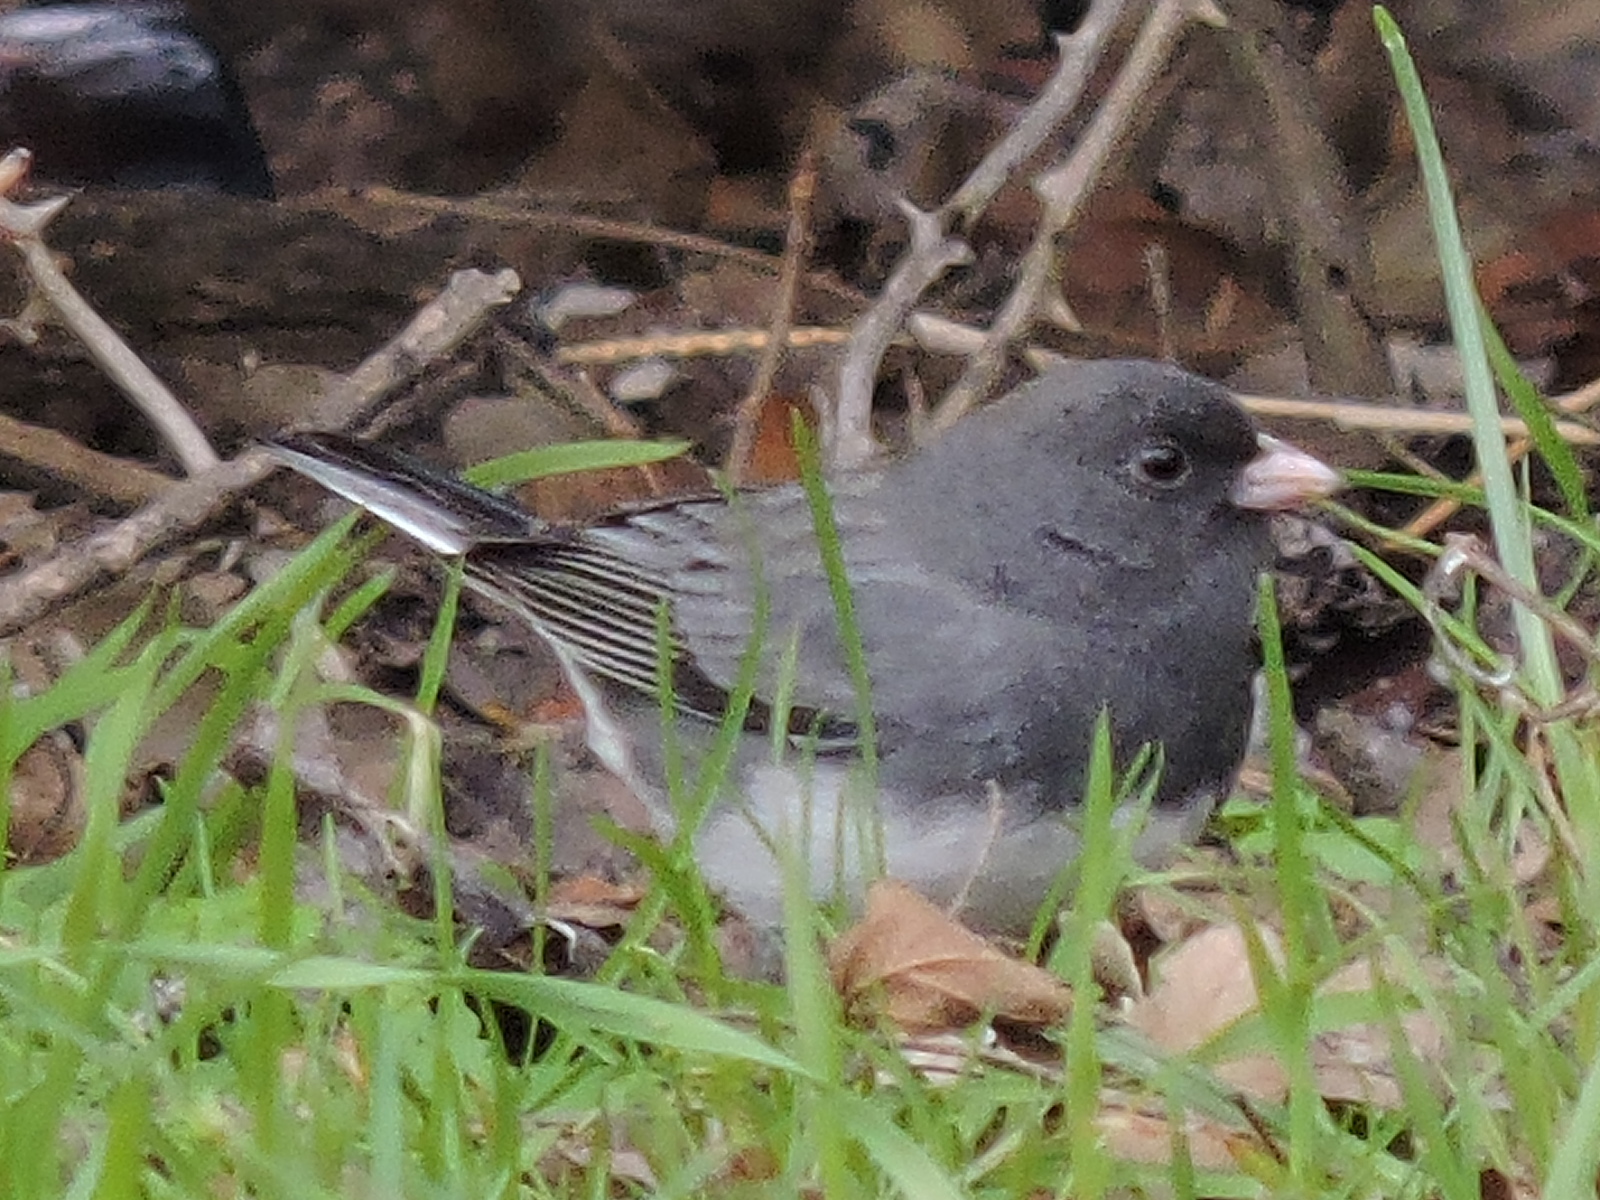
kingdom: Animalia
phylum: Chordata
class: Aves
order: Passeriformes
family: Passerellidae
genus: Junco
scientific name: Junco hyemalis
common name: Dark-eyed junco
